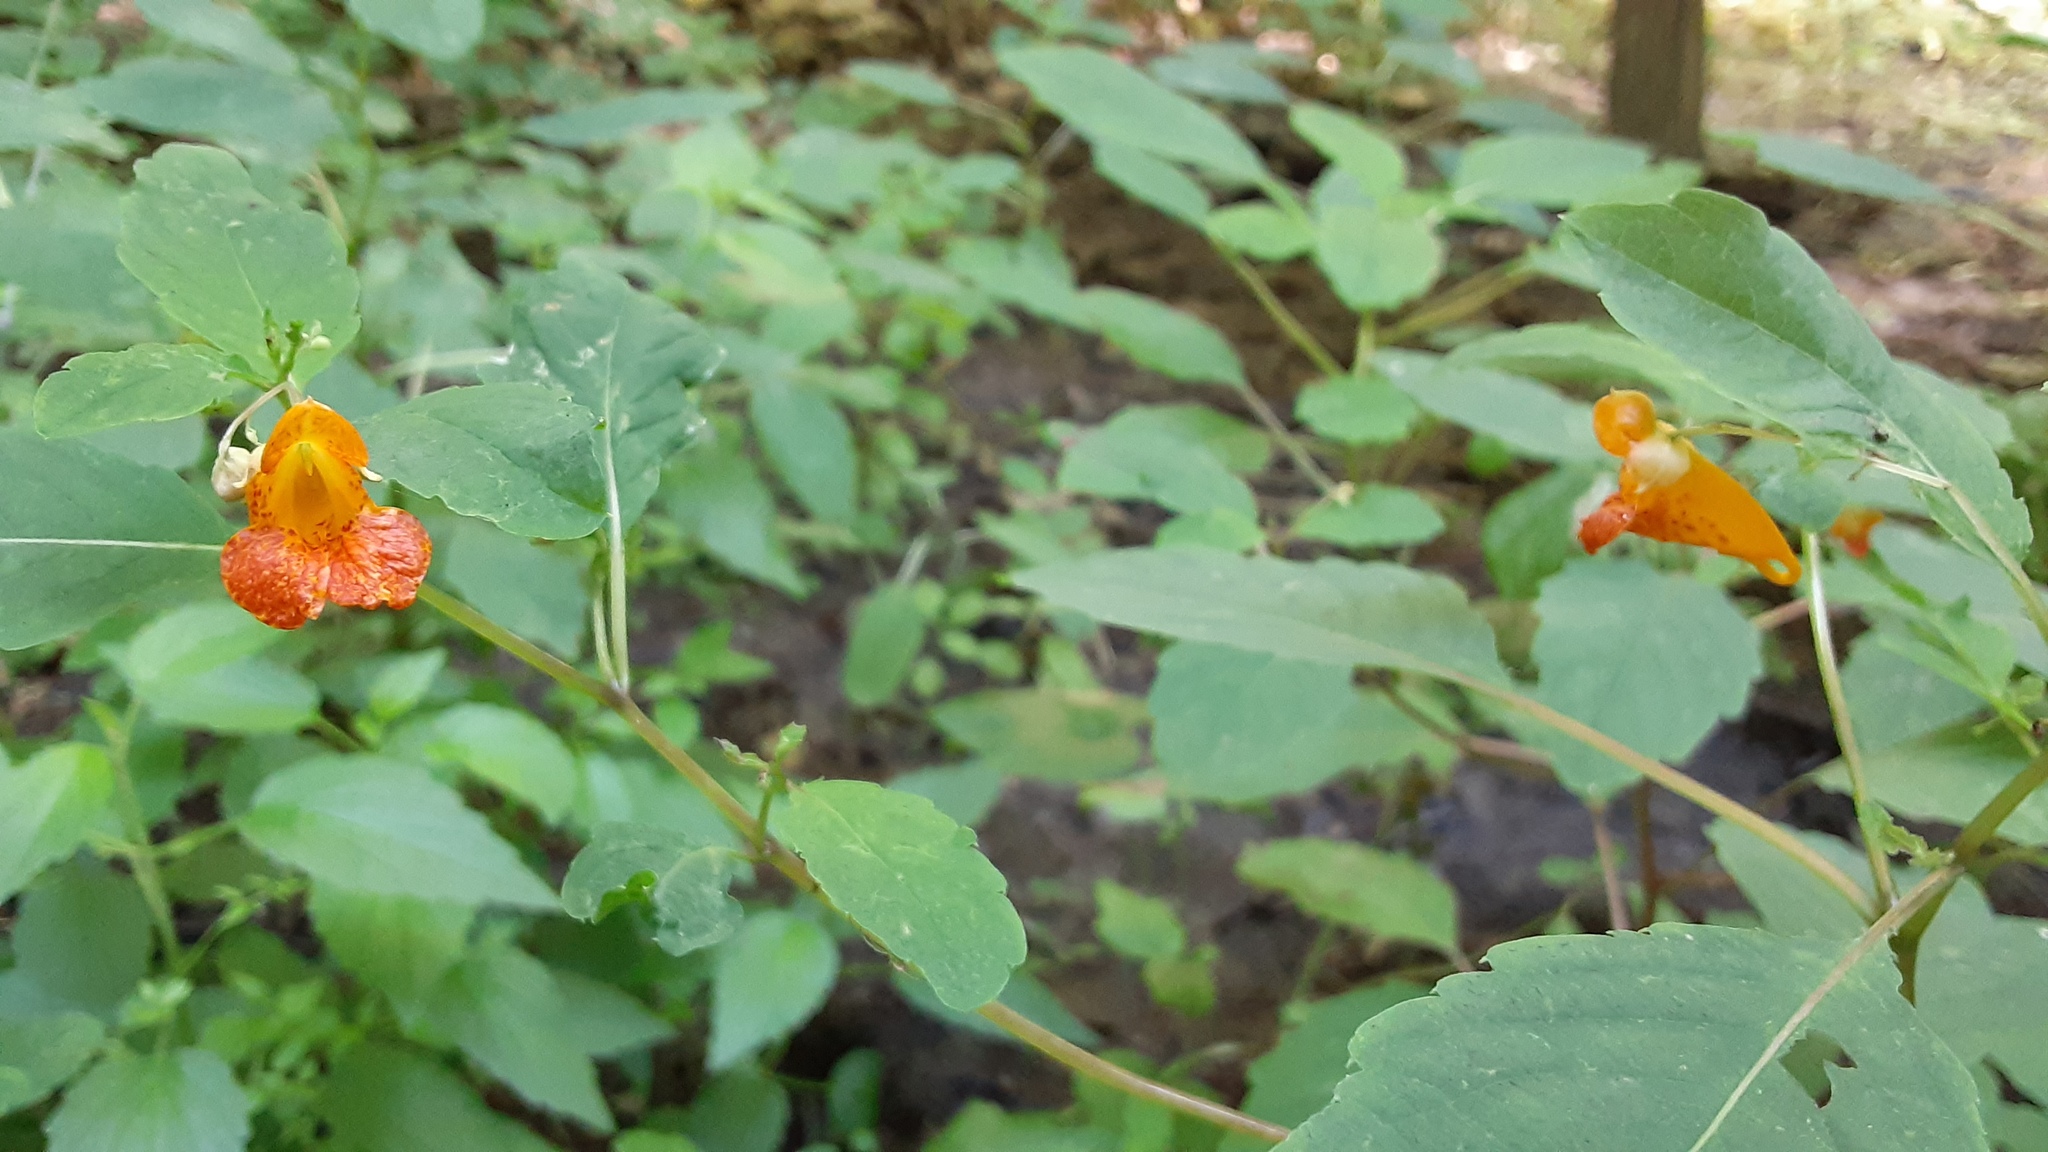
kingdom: Plantae
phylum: Tracheophyta
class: Magnoliopsida
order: Ericales
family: Balsaminaceae
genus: Impatiens
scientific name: Impatiens capensis
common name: Orange balsam
